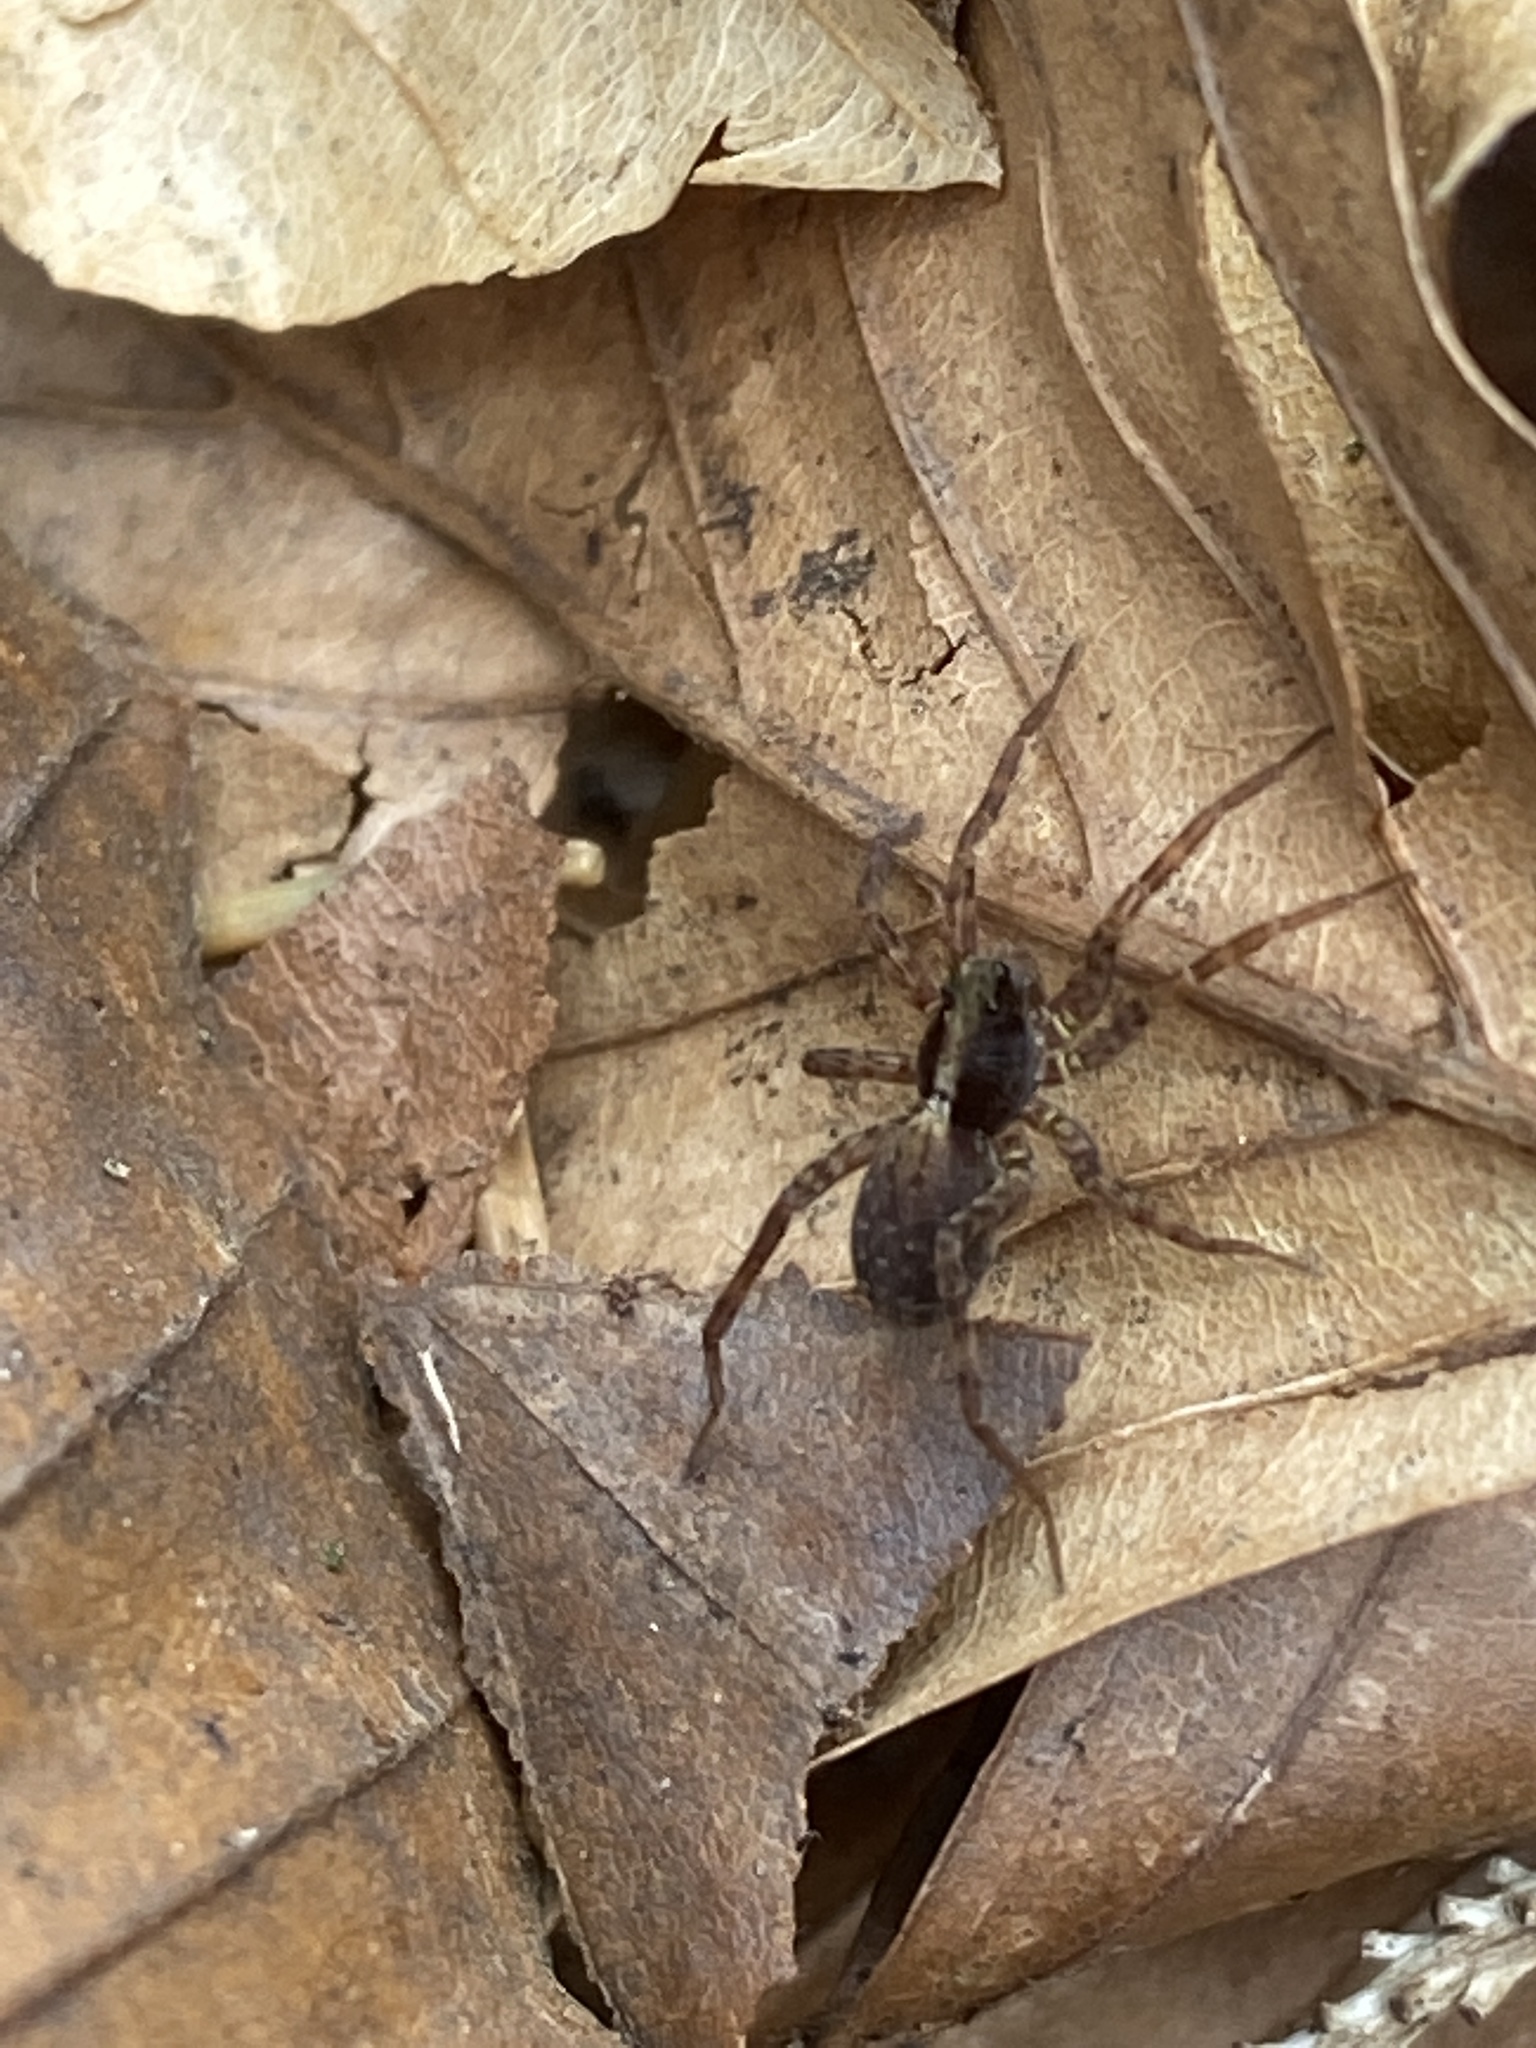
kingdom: Animalia
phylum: Arthropoda
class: Arachnida
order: Araneae
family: Lycosidae
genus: Pardosa
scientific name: Pardosa
